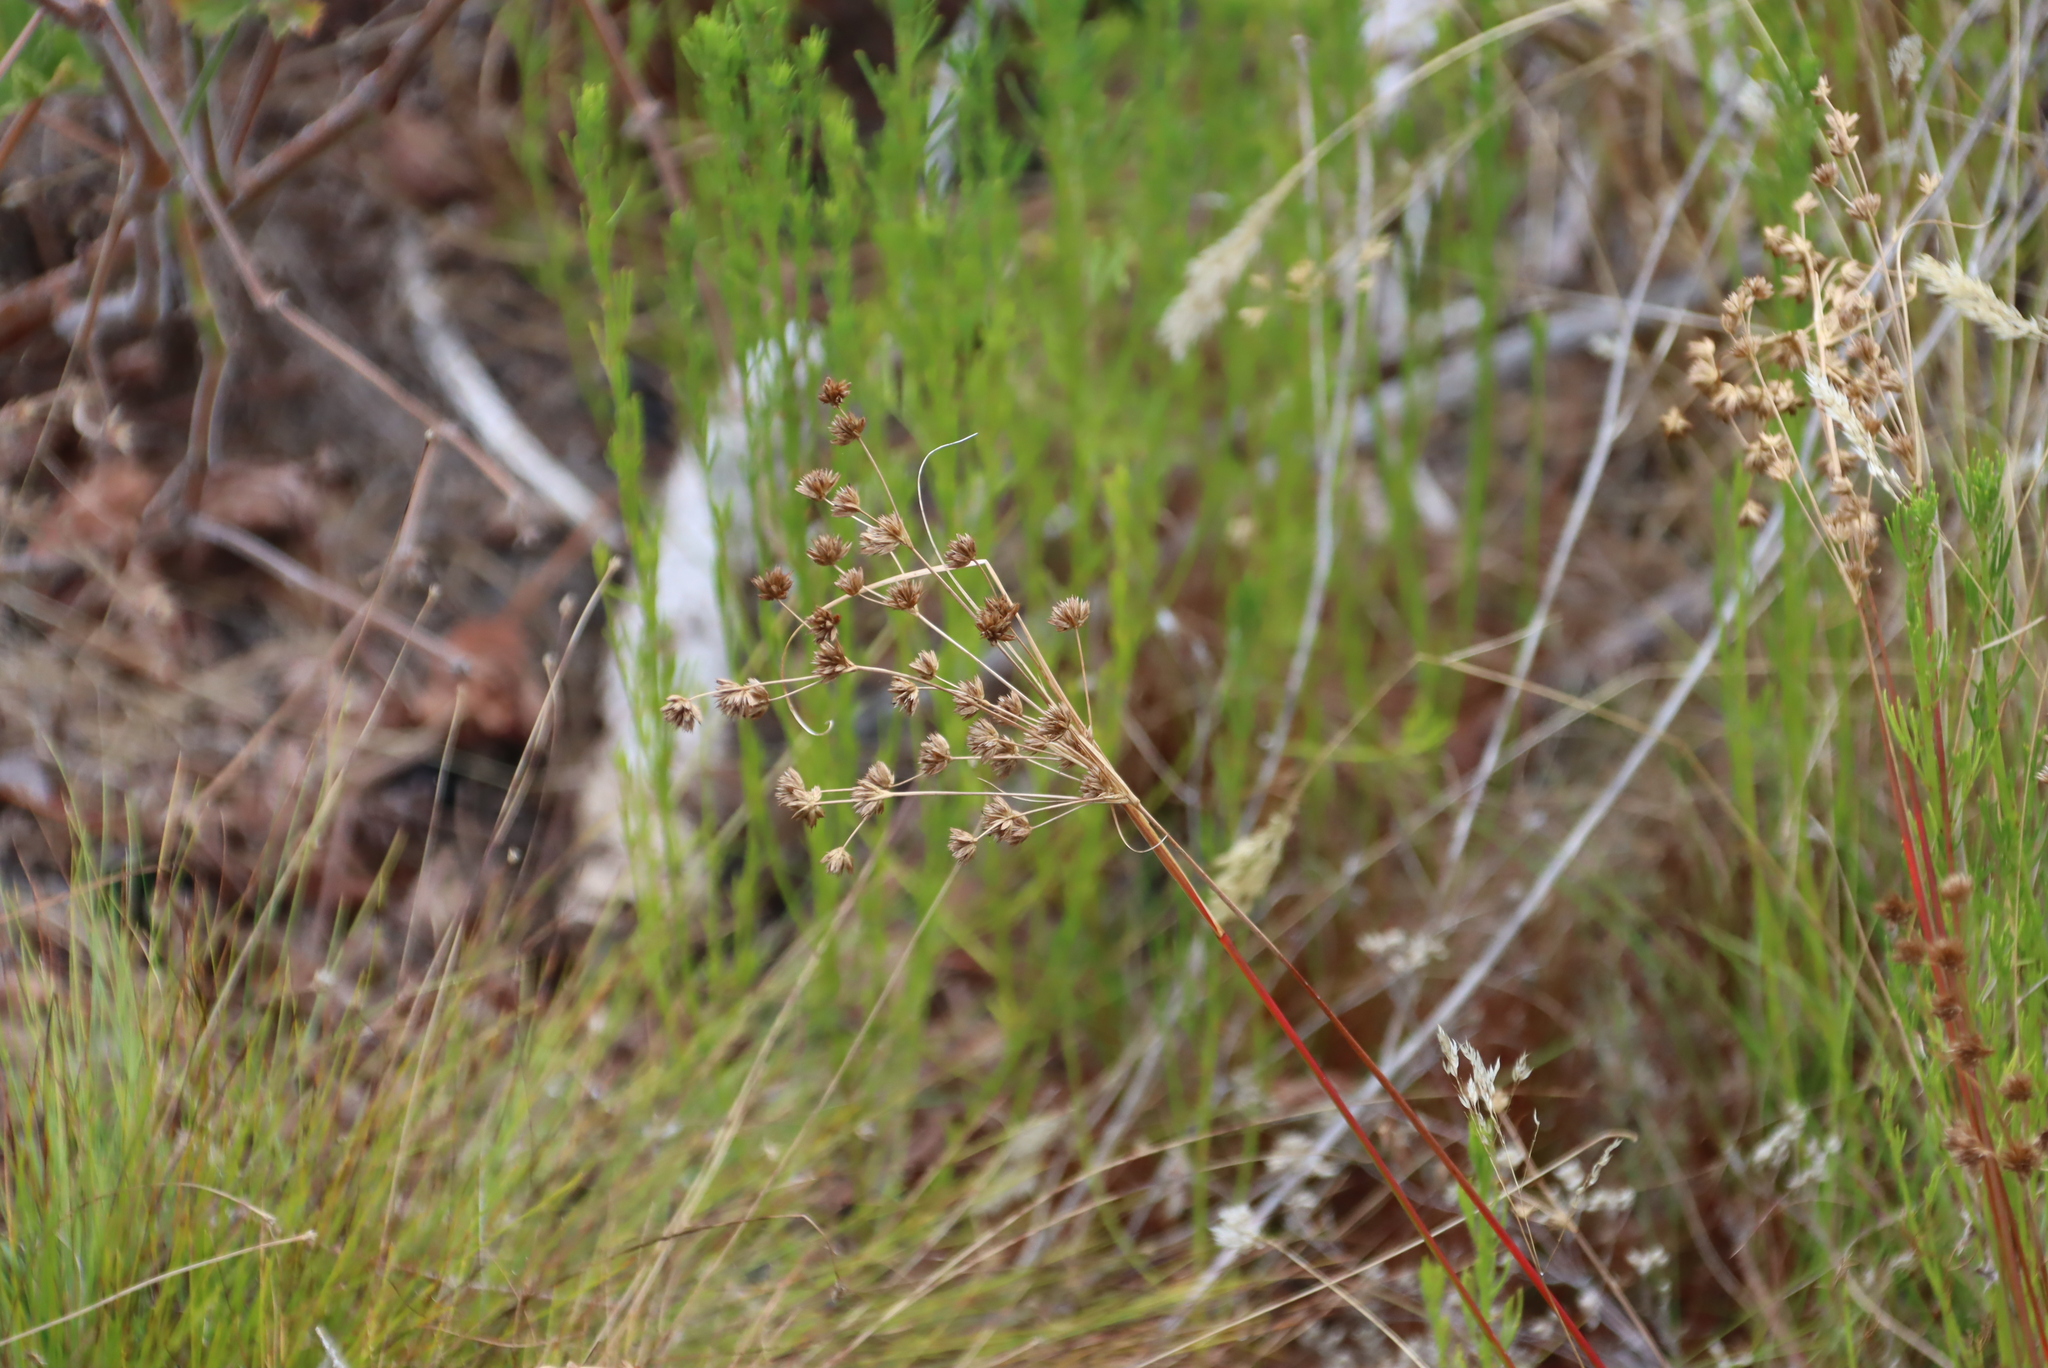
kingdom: Plantae
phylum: Tracheophyta
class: Liliopsida
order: Poales
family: Juncaceae
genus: Juncus
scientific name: Juncus capensis
